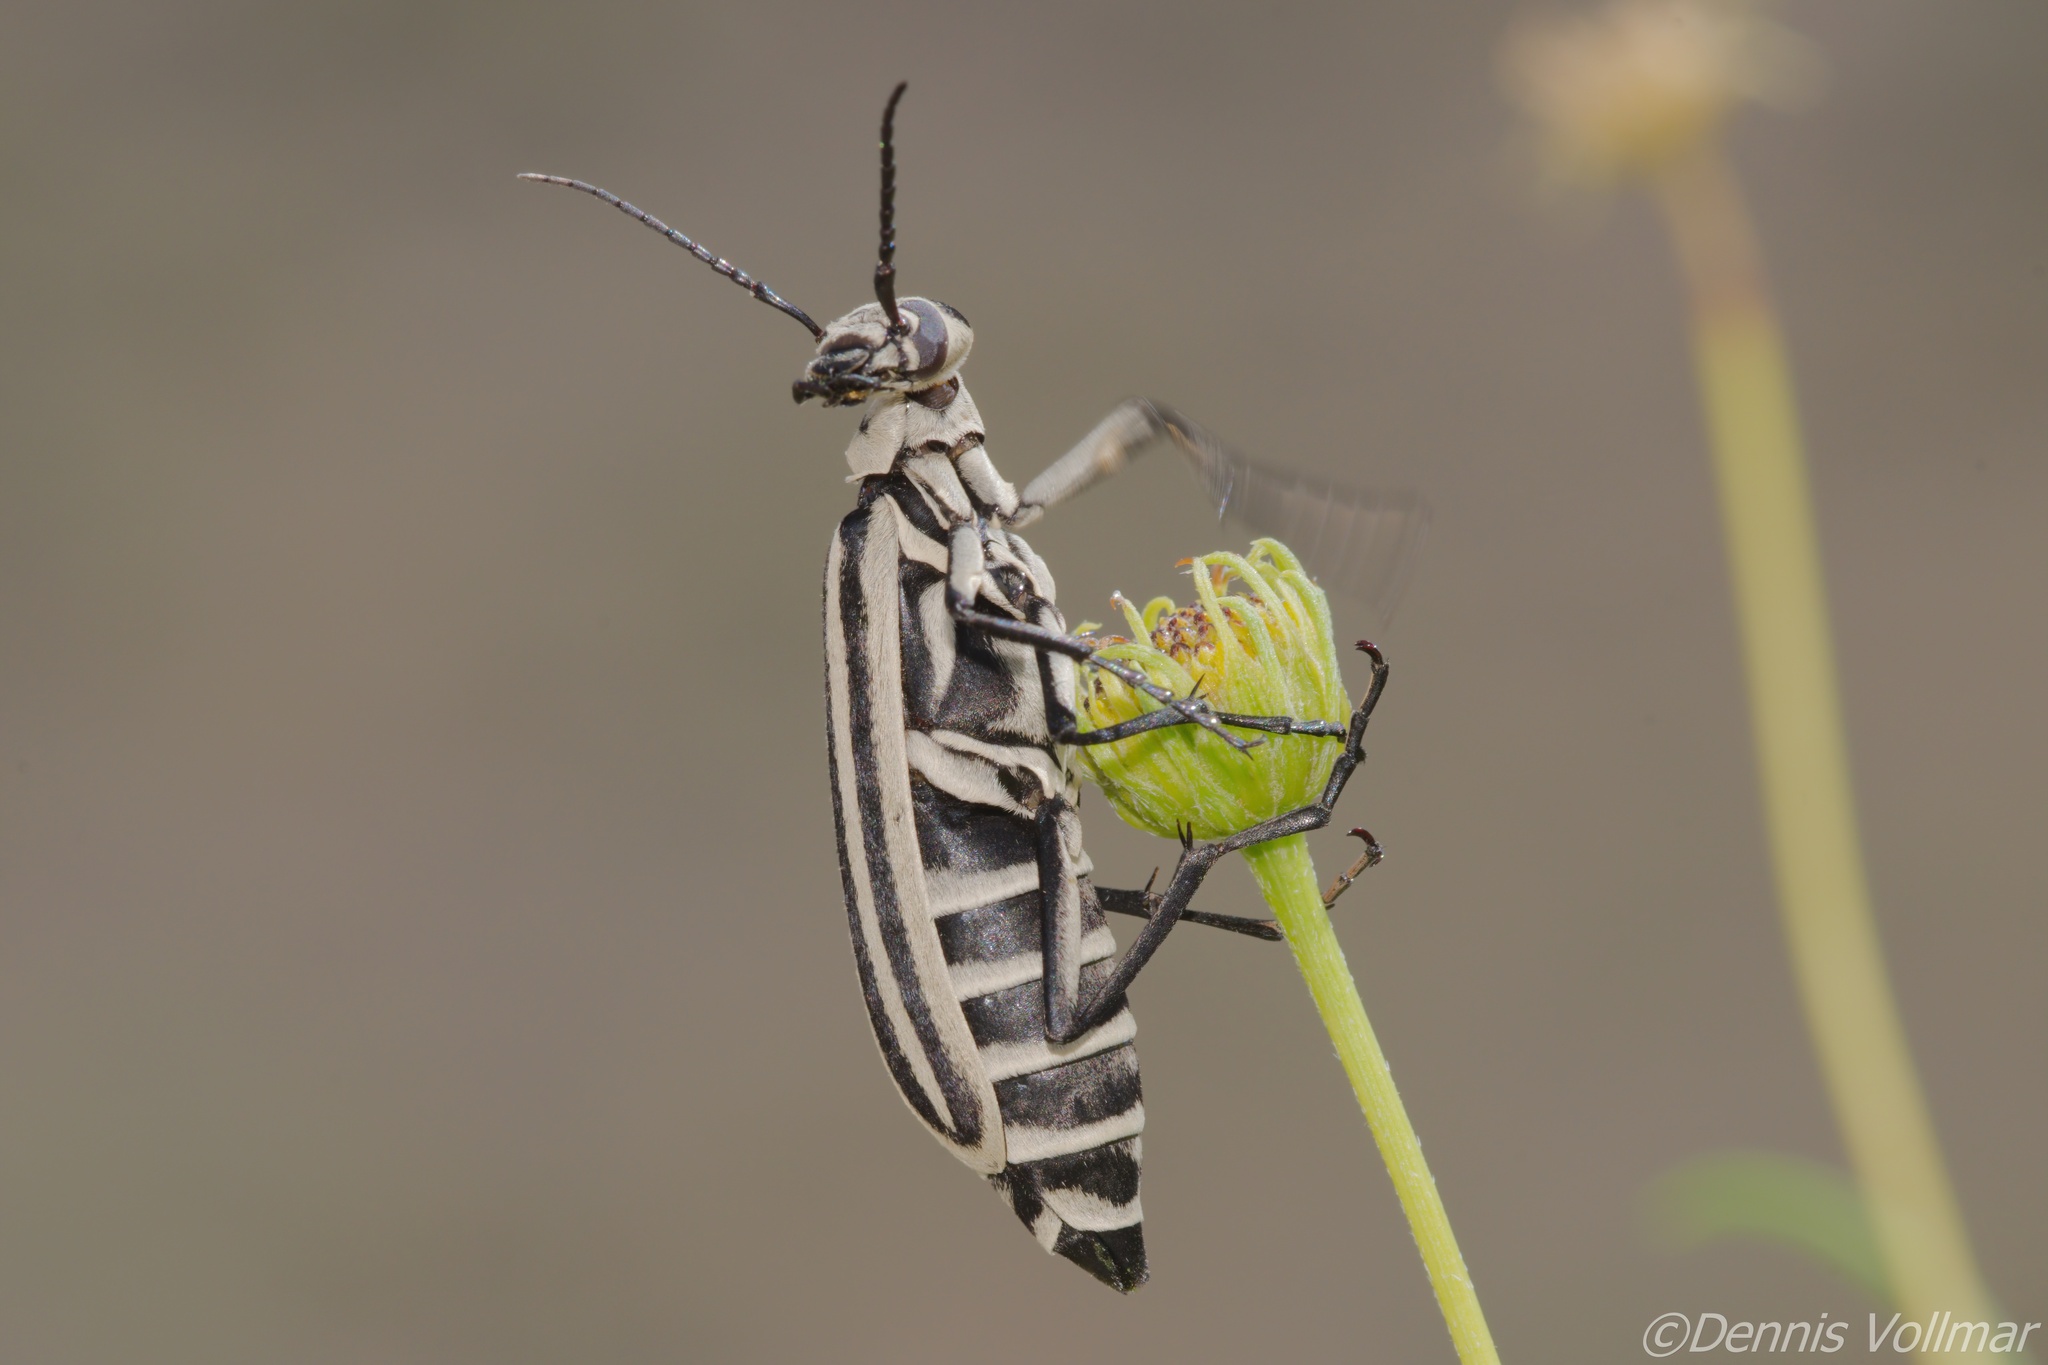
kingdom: Animalia
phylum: Arthropoda
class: Insecta
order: Coleoptera
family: Meloidae
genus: Epicauta
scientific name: Epicauta atrivittata
